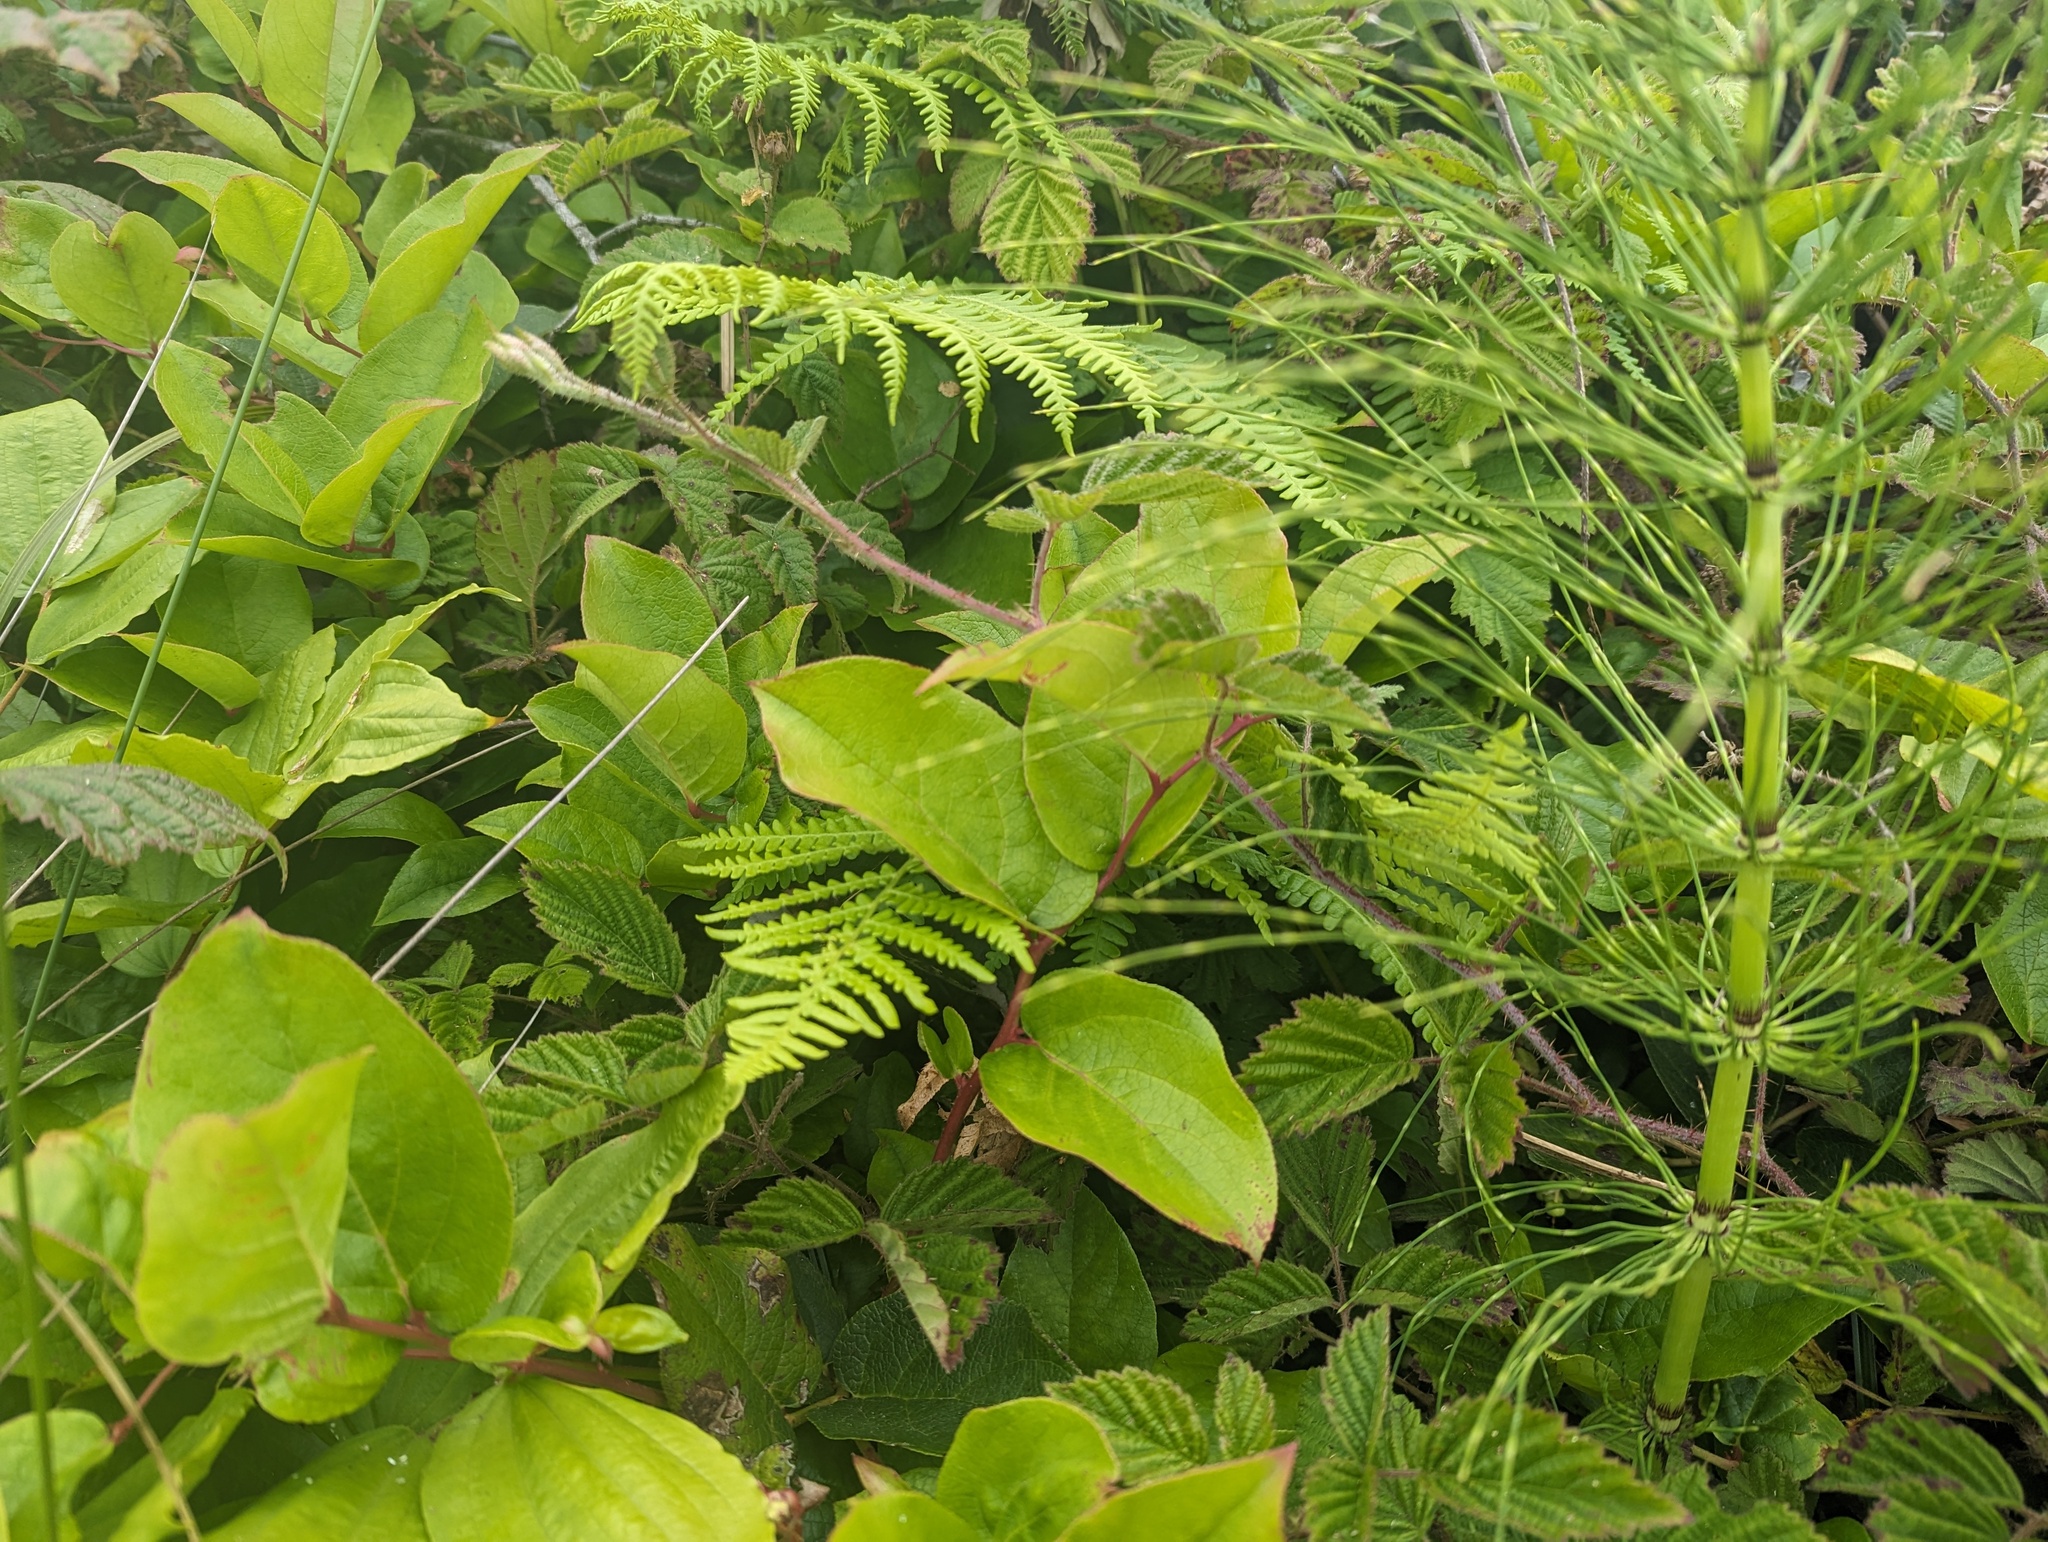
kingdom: Plantae
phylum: Tracheophyta
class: Magnoliopsida
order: Ericales
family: Ericaceae
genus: Gaultheria
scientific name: Gaultheria shallon
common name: Shallon
